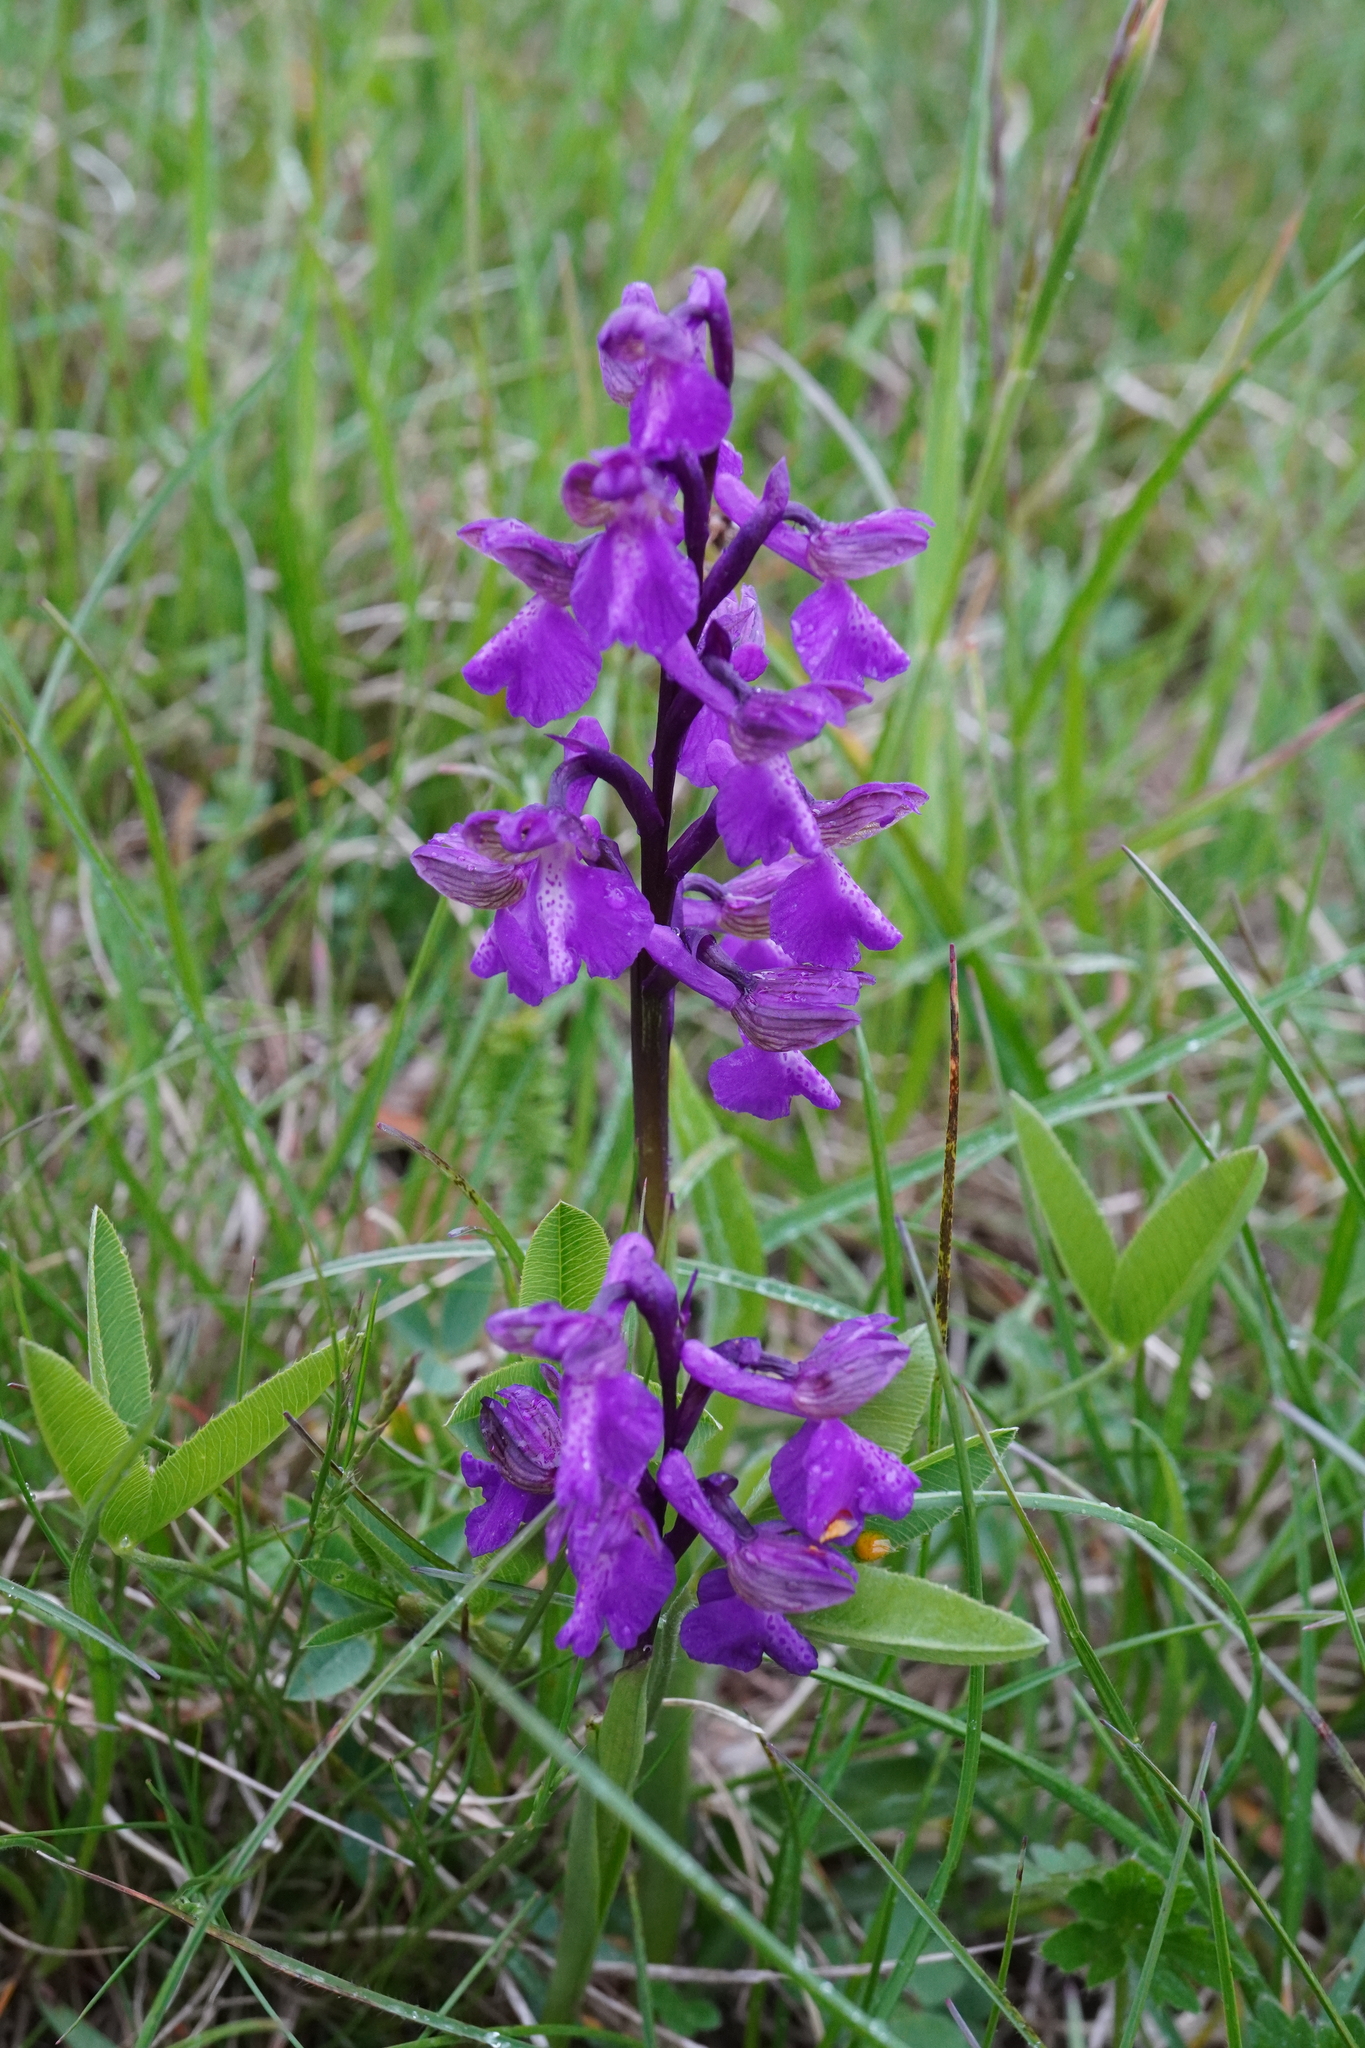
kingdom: Plantae
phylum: Tracheophyta
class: Liliopsida
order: Asparagales
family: Orchidaceae
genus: Anacamptis
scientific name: Anacamptis morio
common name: Green-winged orchid
